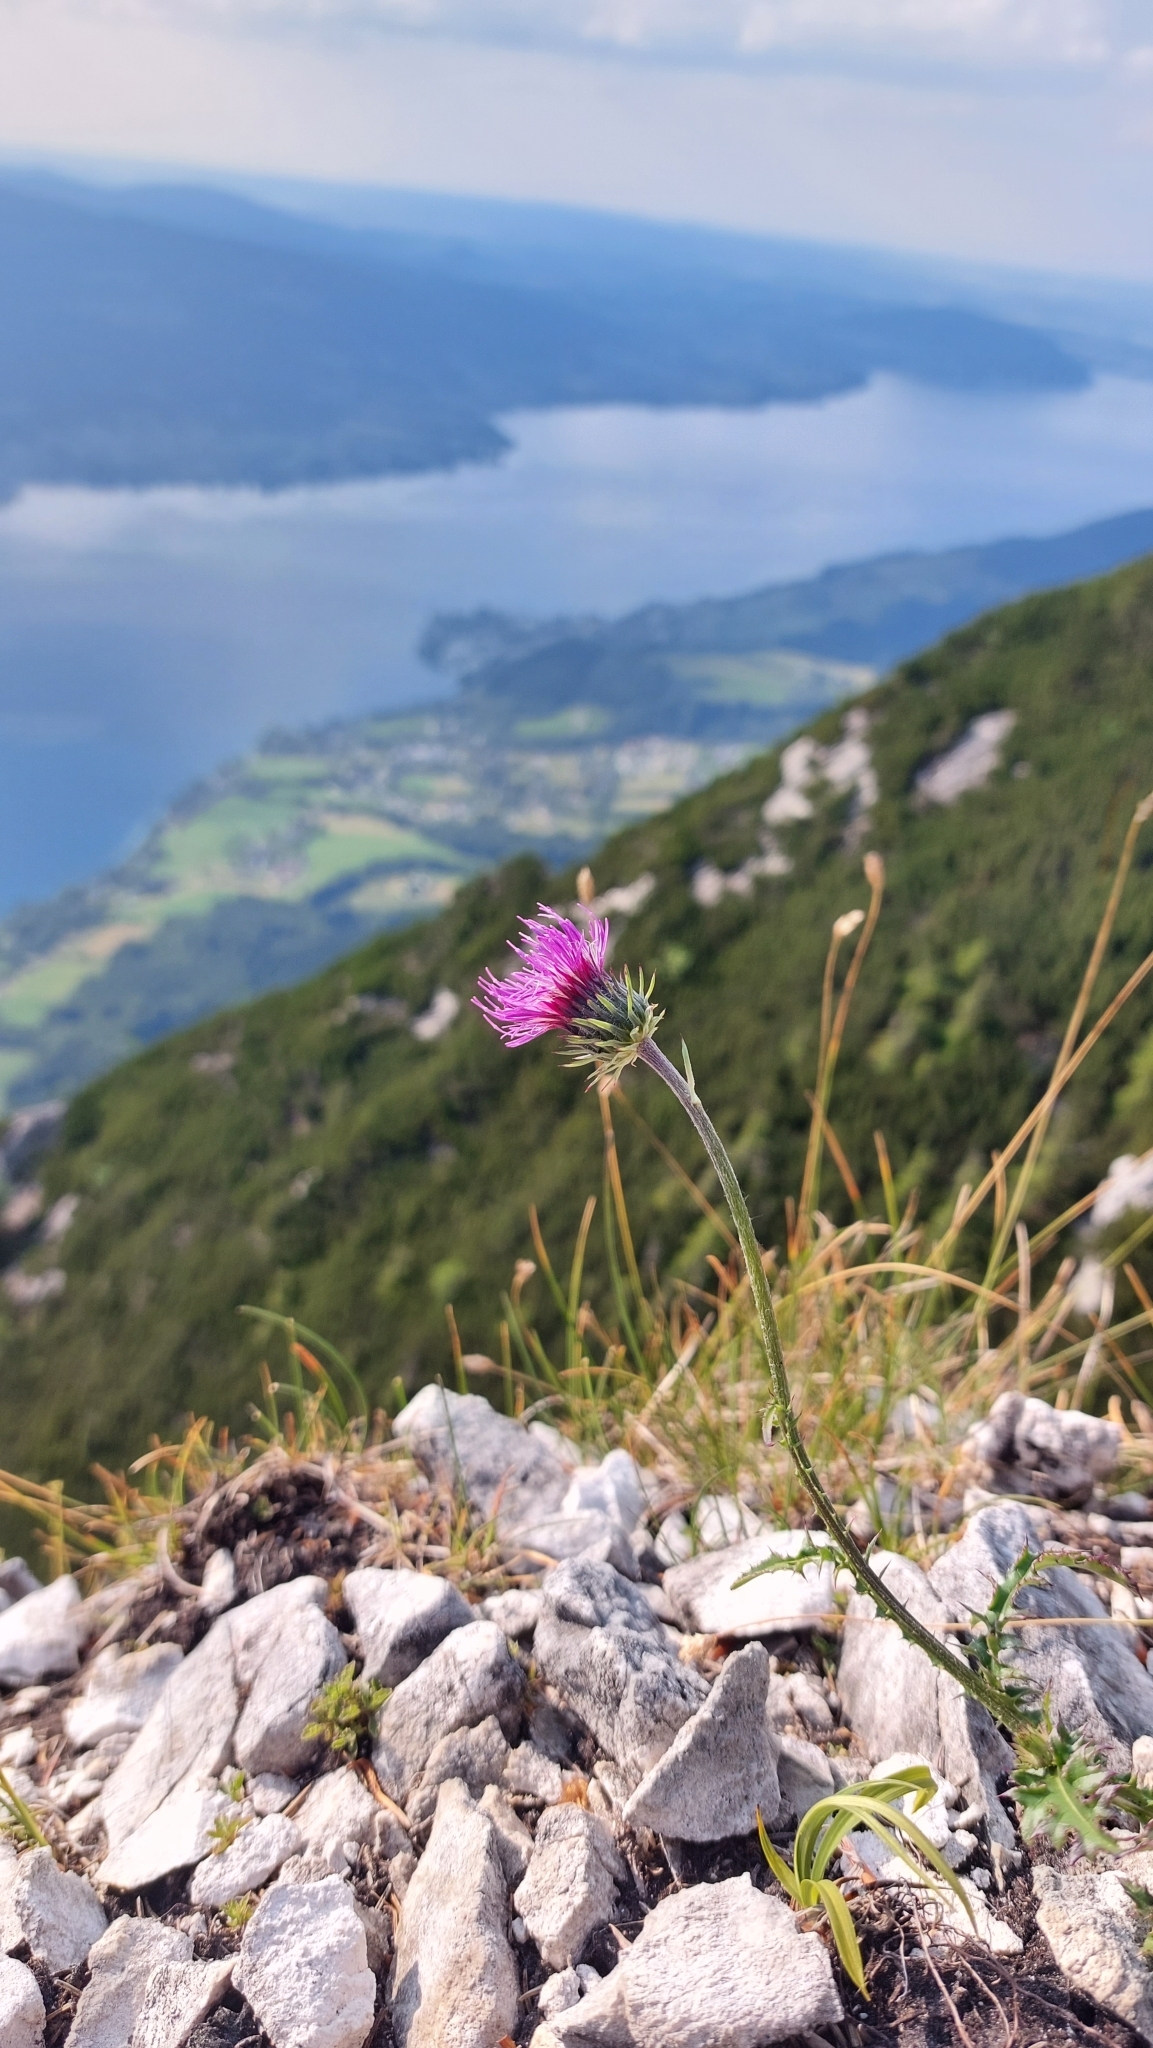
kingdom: Plantae
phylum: Tracheophyta
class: Magnoliopsida
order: Asterales
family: Asteraceae
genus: Carduus
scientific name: Carduus defloratus
